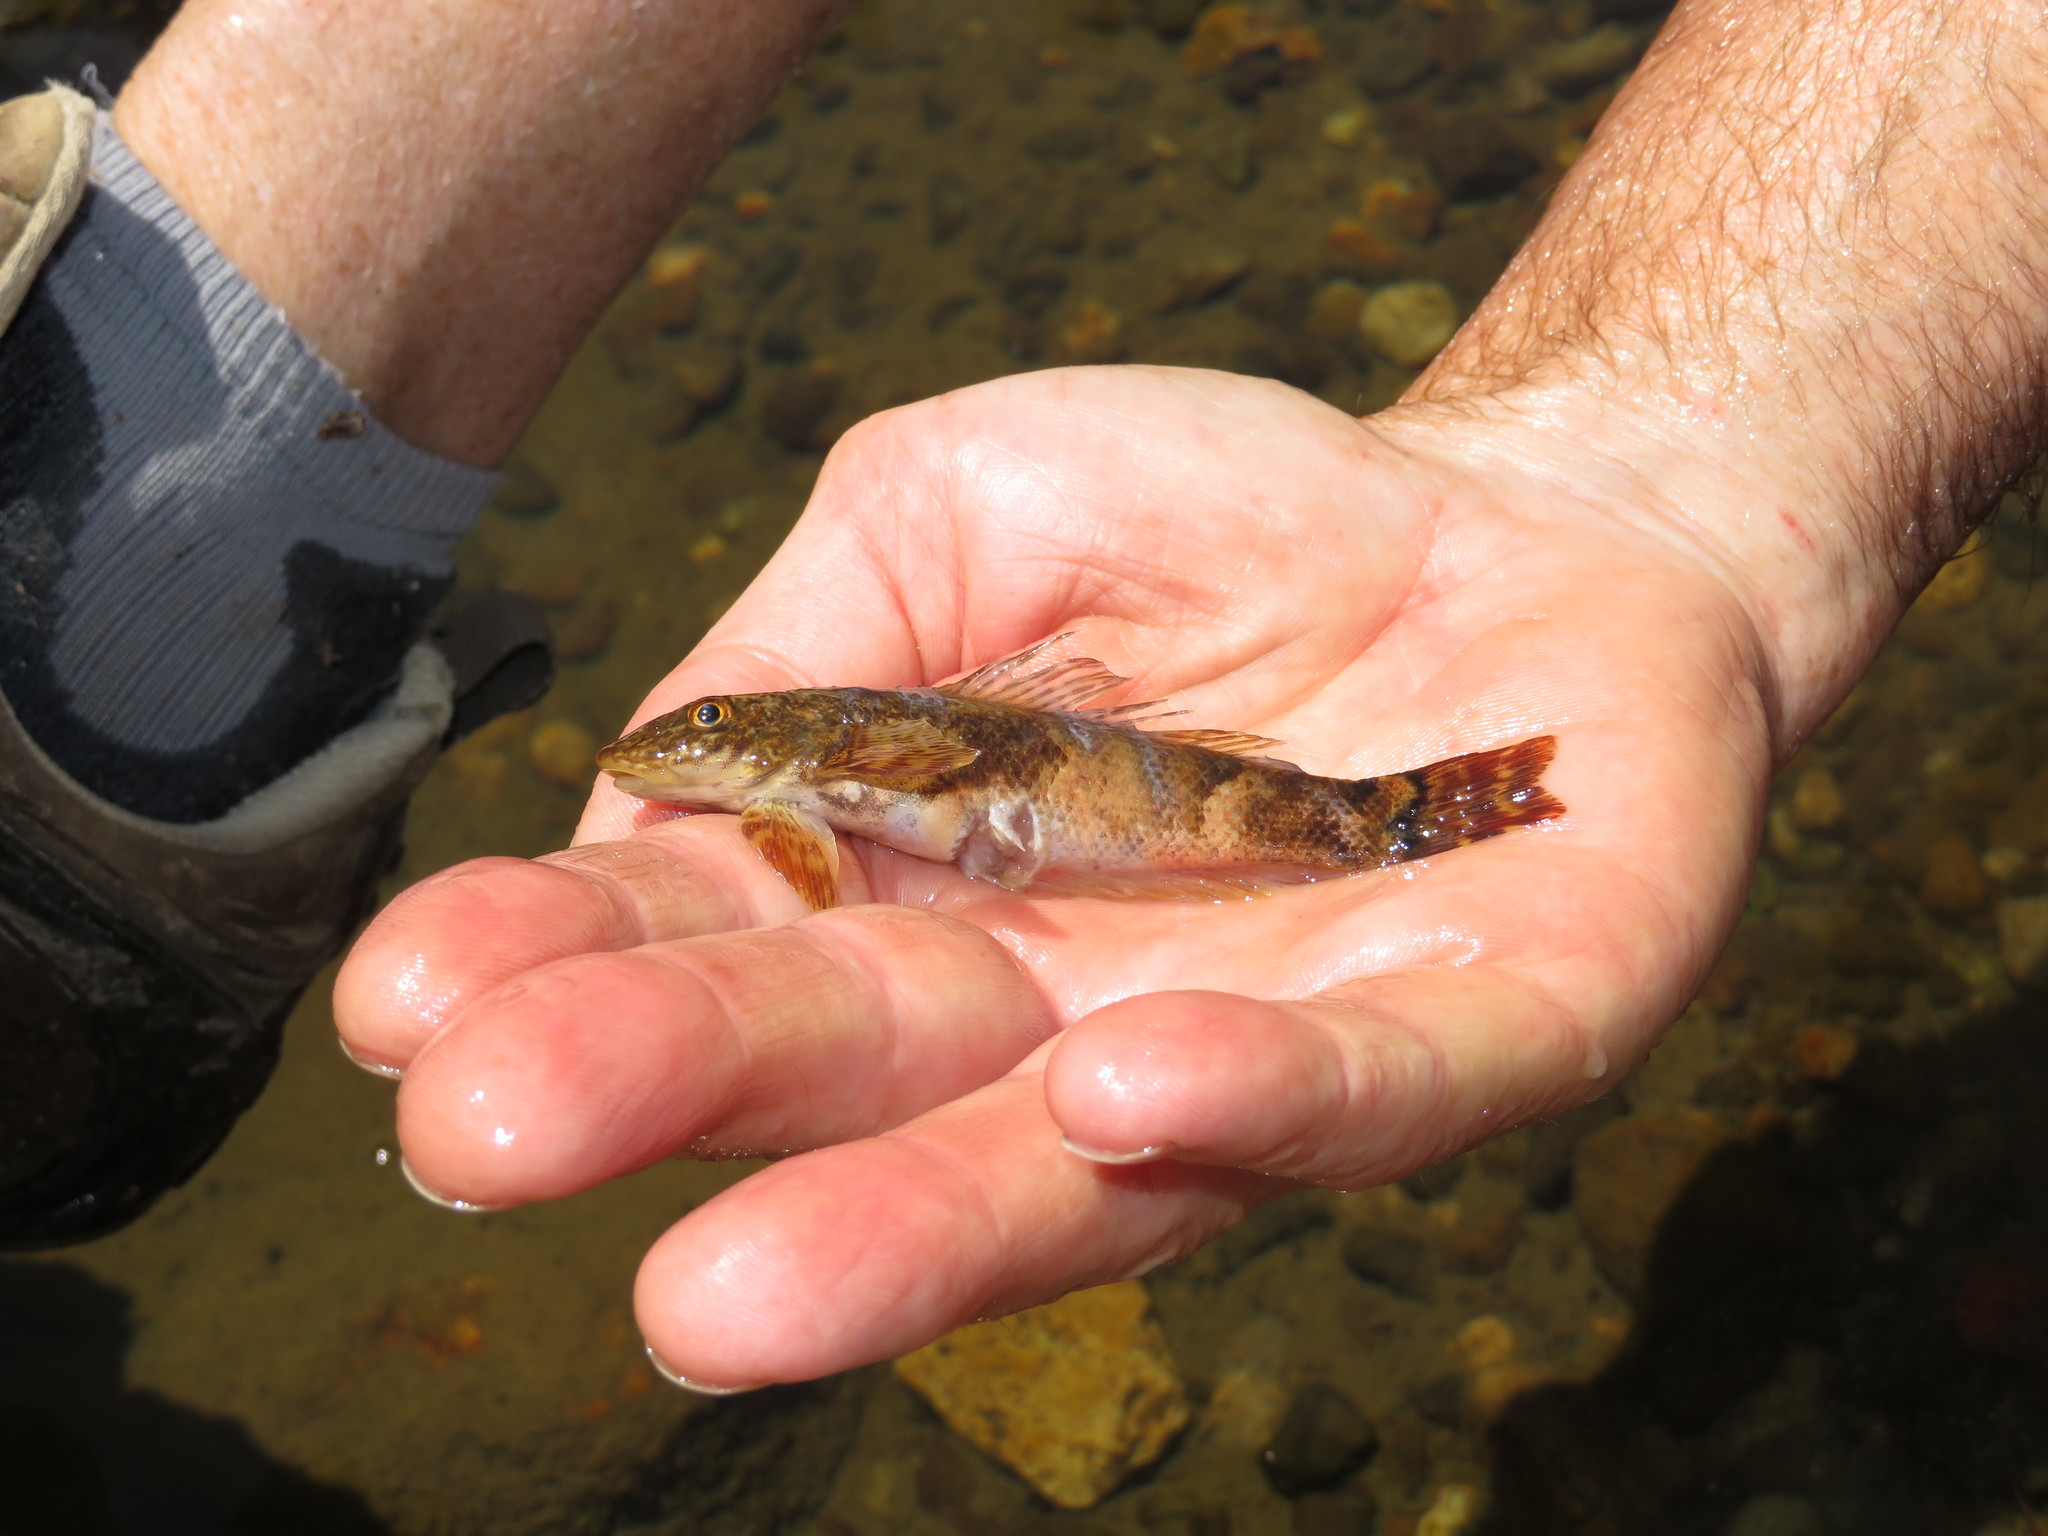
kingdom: Animalia
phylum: Chordata
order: Perciformes
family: Cheimarrichthyidae
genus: Cheimarrichthys
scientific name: Cheimarrichthys fosterae
